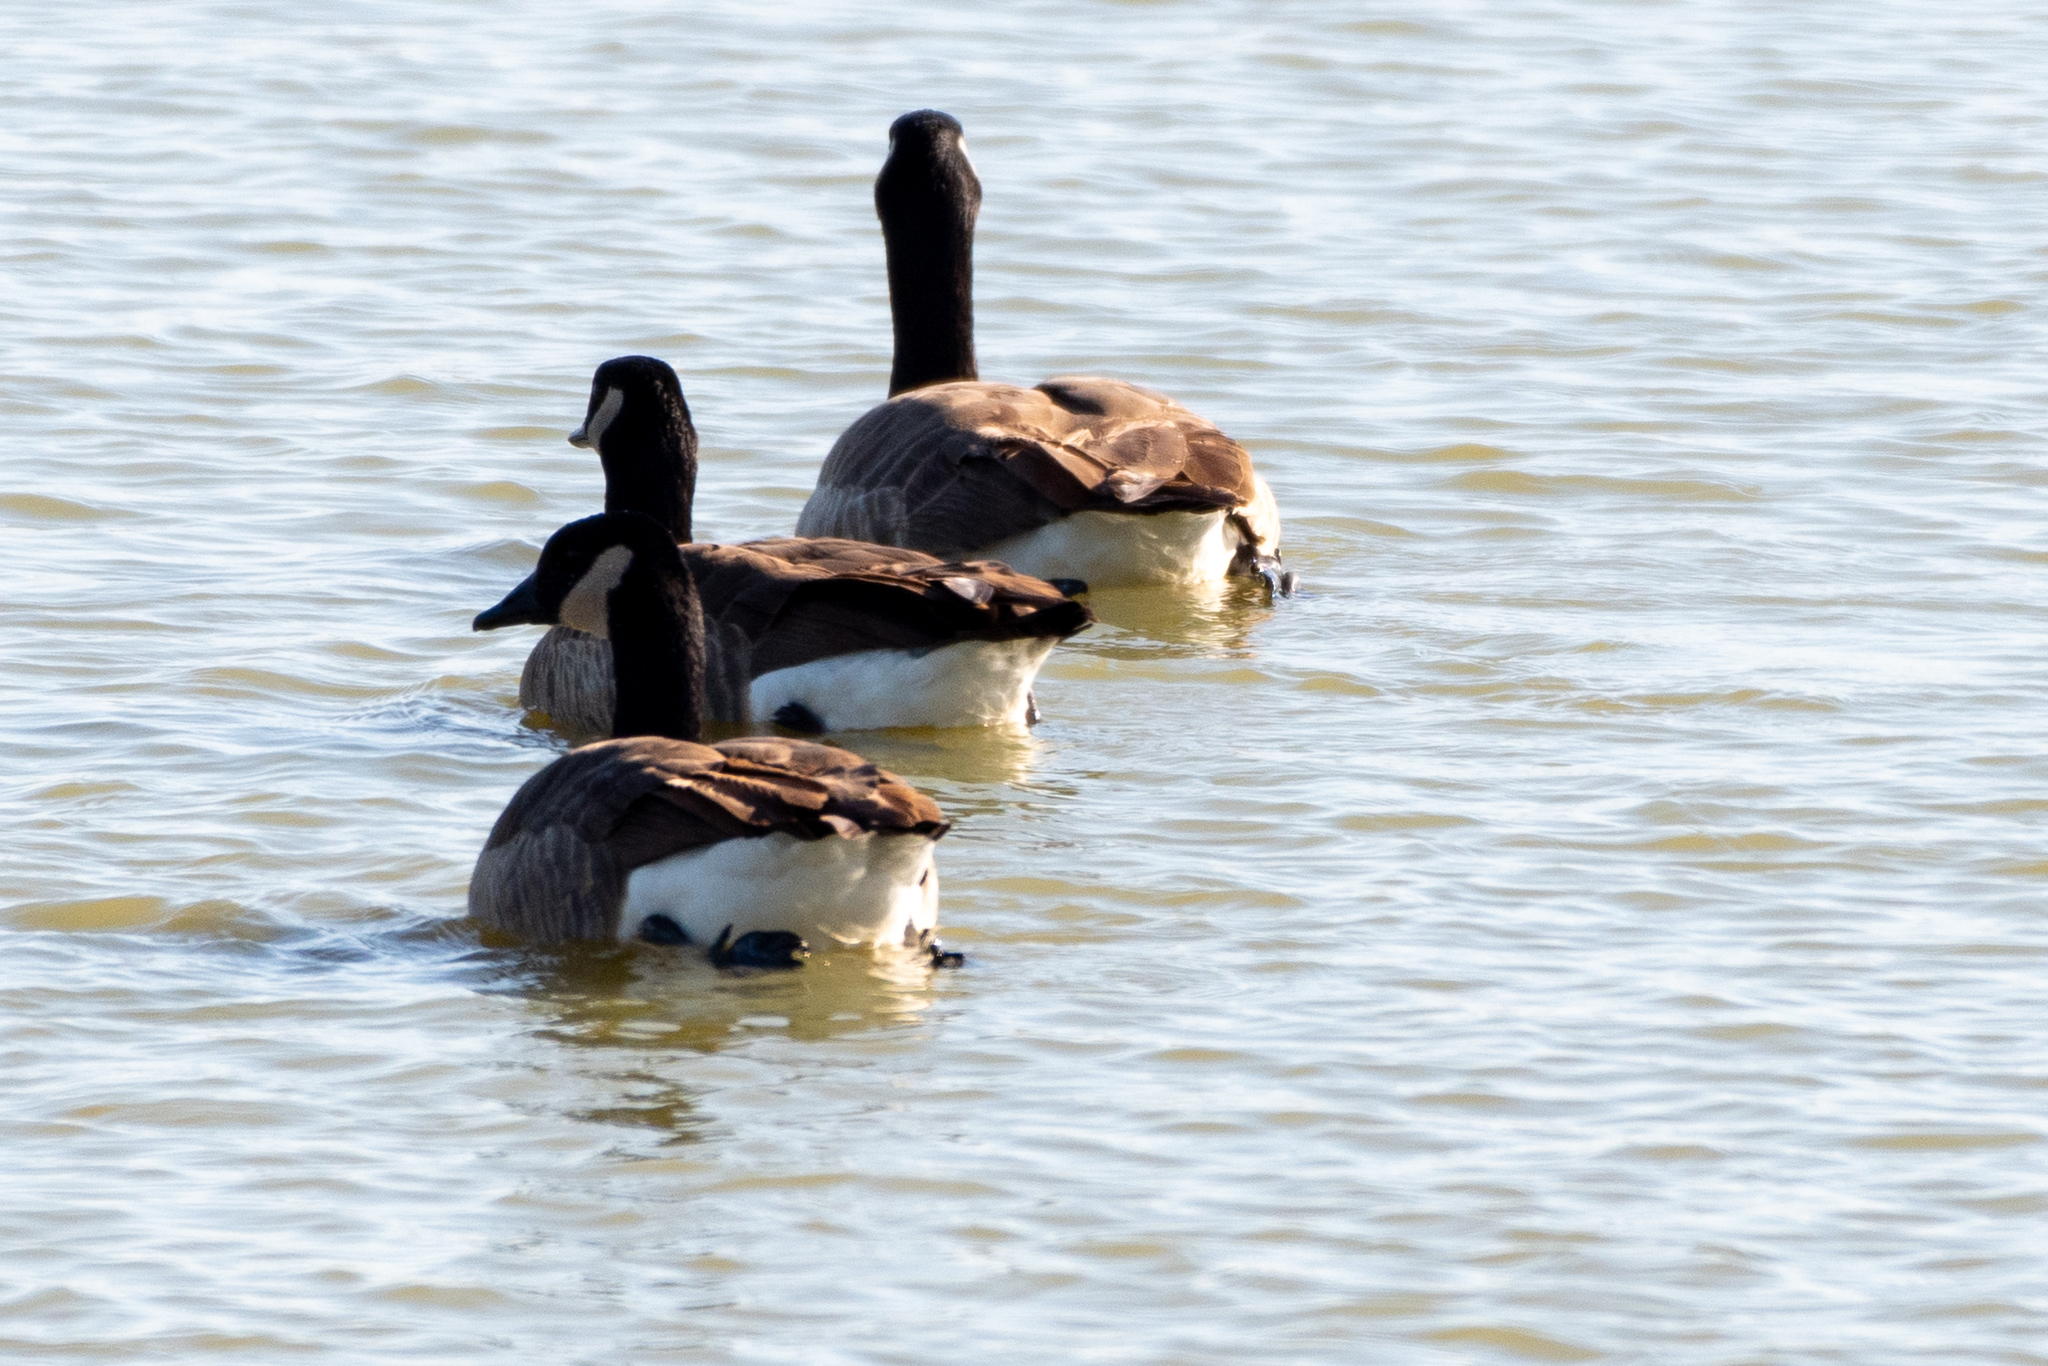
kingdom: Animalia
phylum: Chordata
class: Aves
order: Anseriformes
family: Anatidae
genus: Branta
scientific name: Branta canadensis
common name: Canada goose
